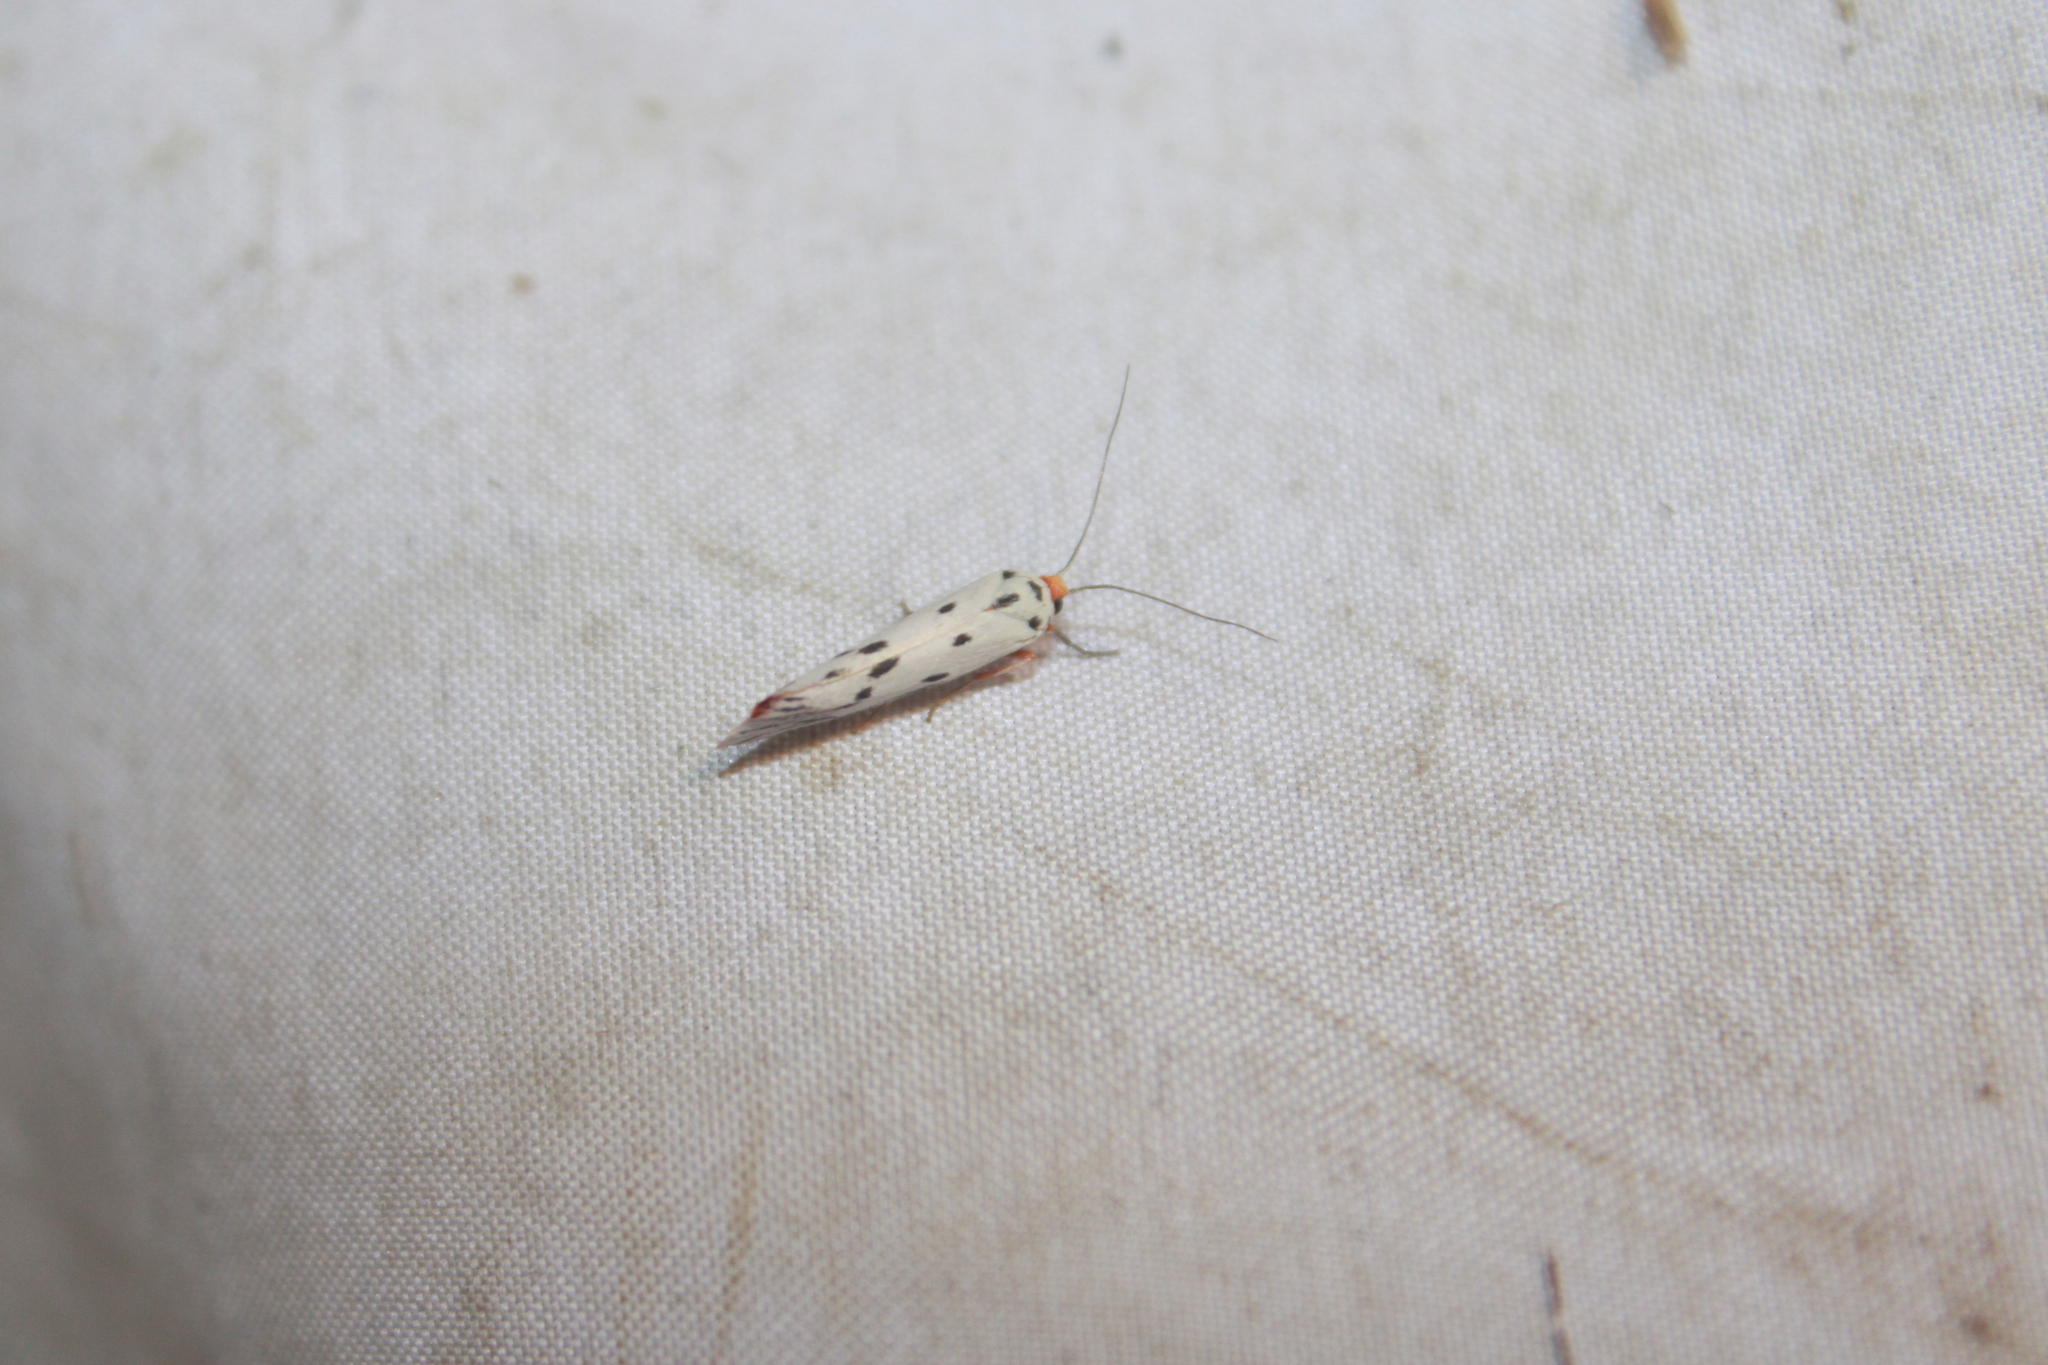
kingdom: Animalia
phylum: Arthropoda
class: Insecta
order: Lepidoptera
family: Lacturidae
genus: Lactura
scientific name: Lactura
